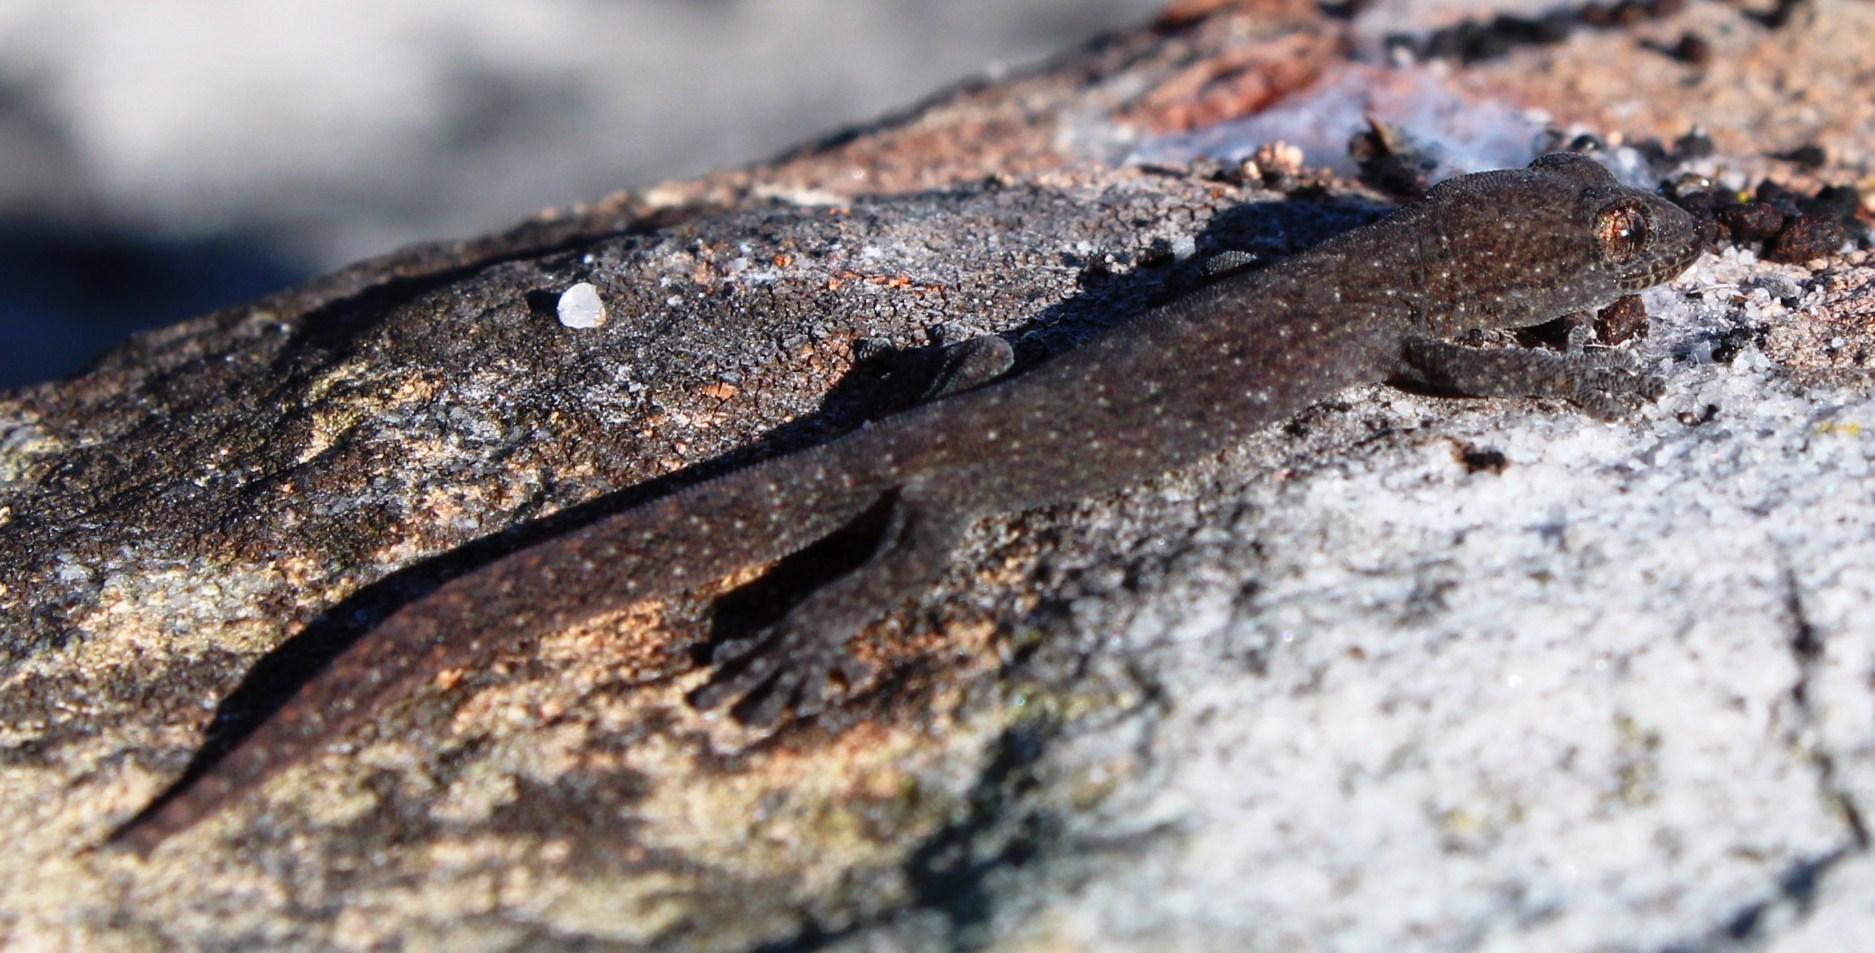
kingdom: Animalia
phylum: Chordata
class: Squamata
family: Gekkonidae
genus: Afrogecko
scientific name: Afrogecko porphyreus
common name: Marbled leaf-toed gecko
